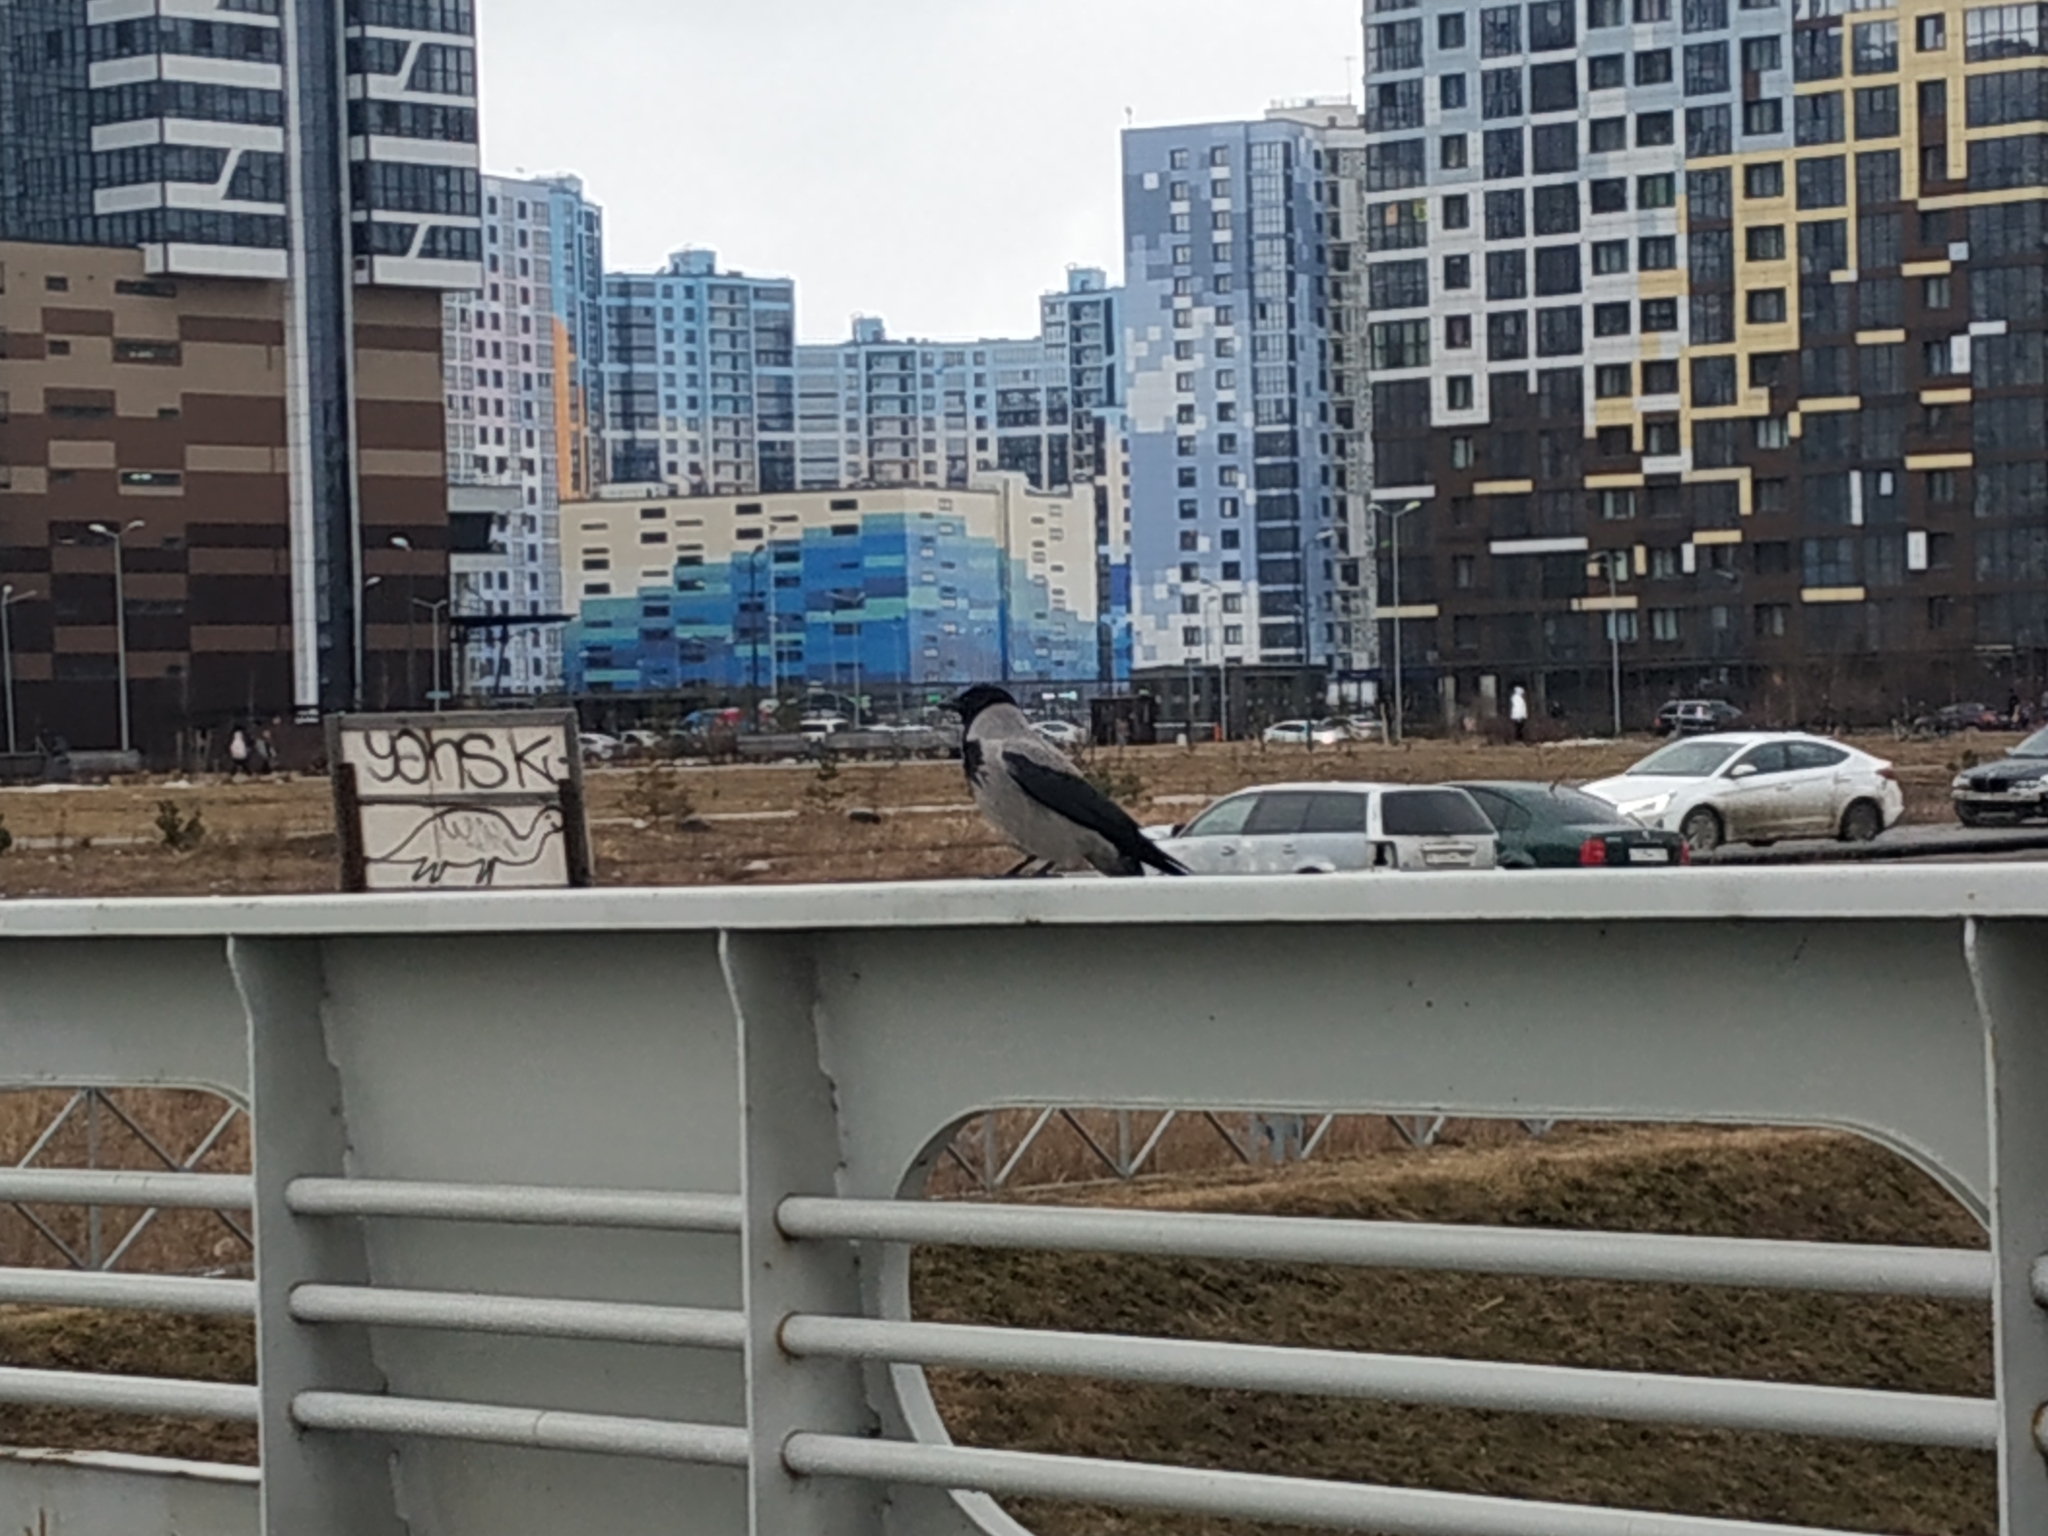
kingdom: Animalia
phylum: Chordata
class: Aves
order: Passeriformes
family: Corvidae
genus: Corvus
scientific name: Corvus cornix
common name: Hooded crow
